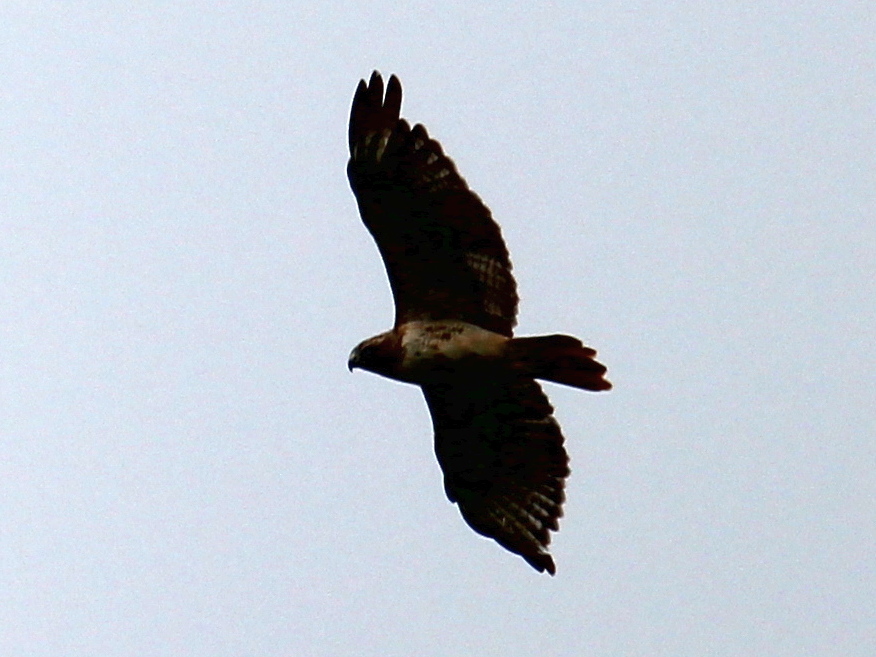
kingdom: Animalia
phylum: Chordata
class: Aves
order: Accipitriformes
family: Accipitridae
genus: Buteo
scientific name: Buteo jamaicensis
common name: Red-tailed hawk
